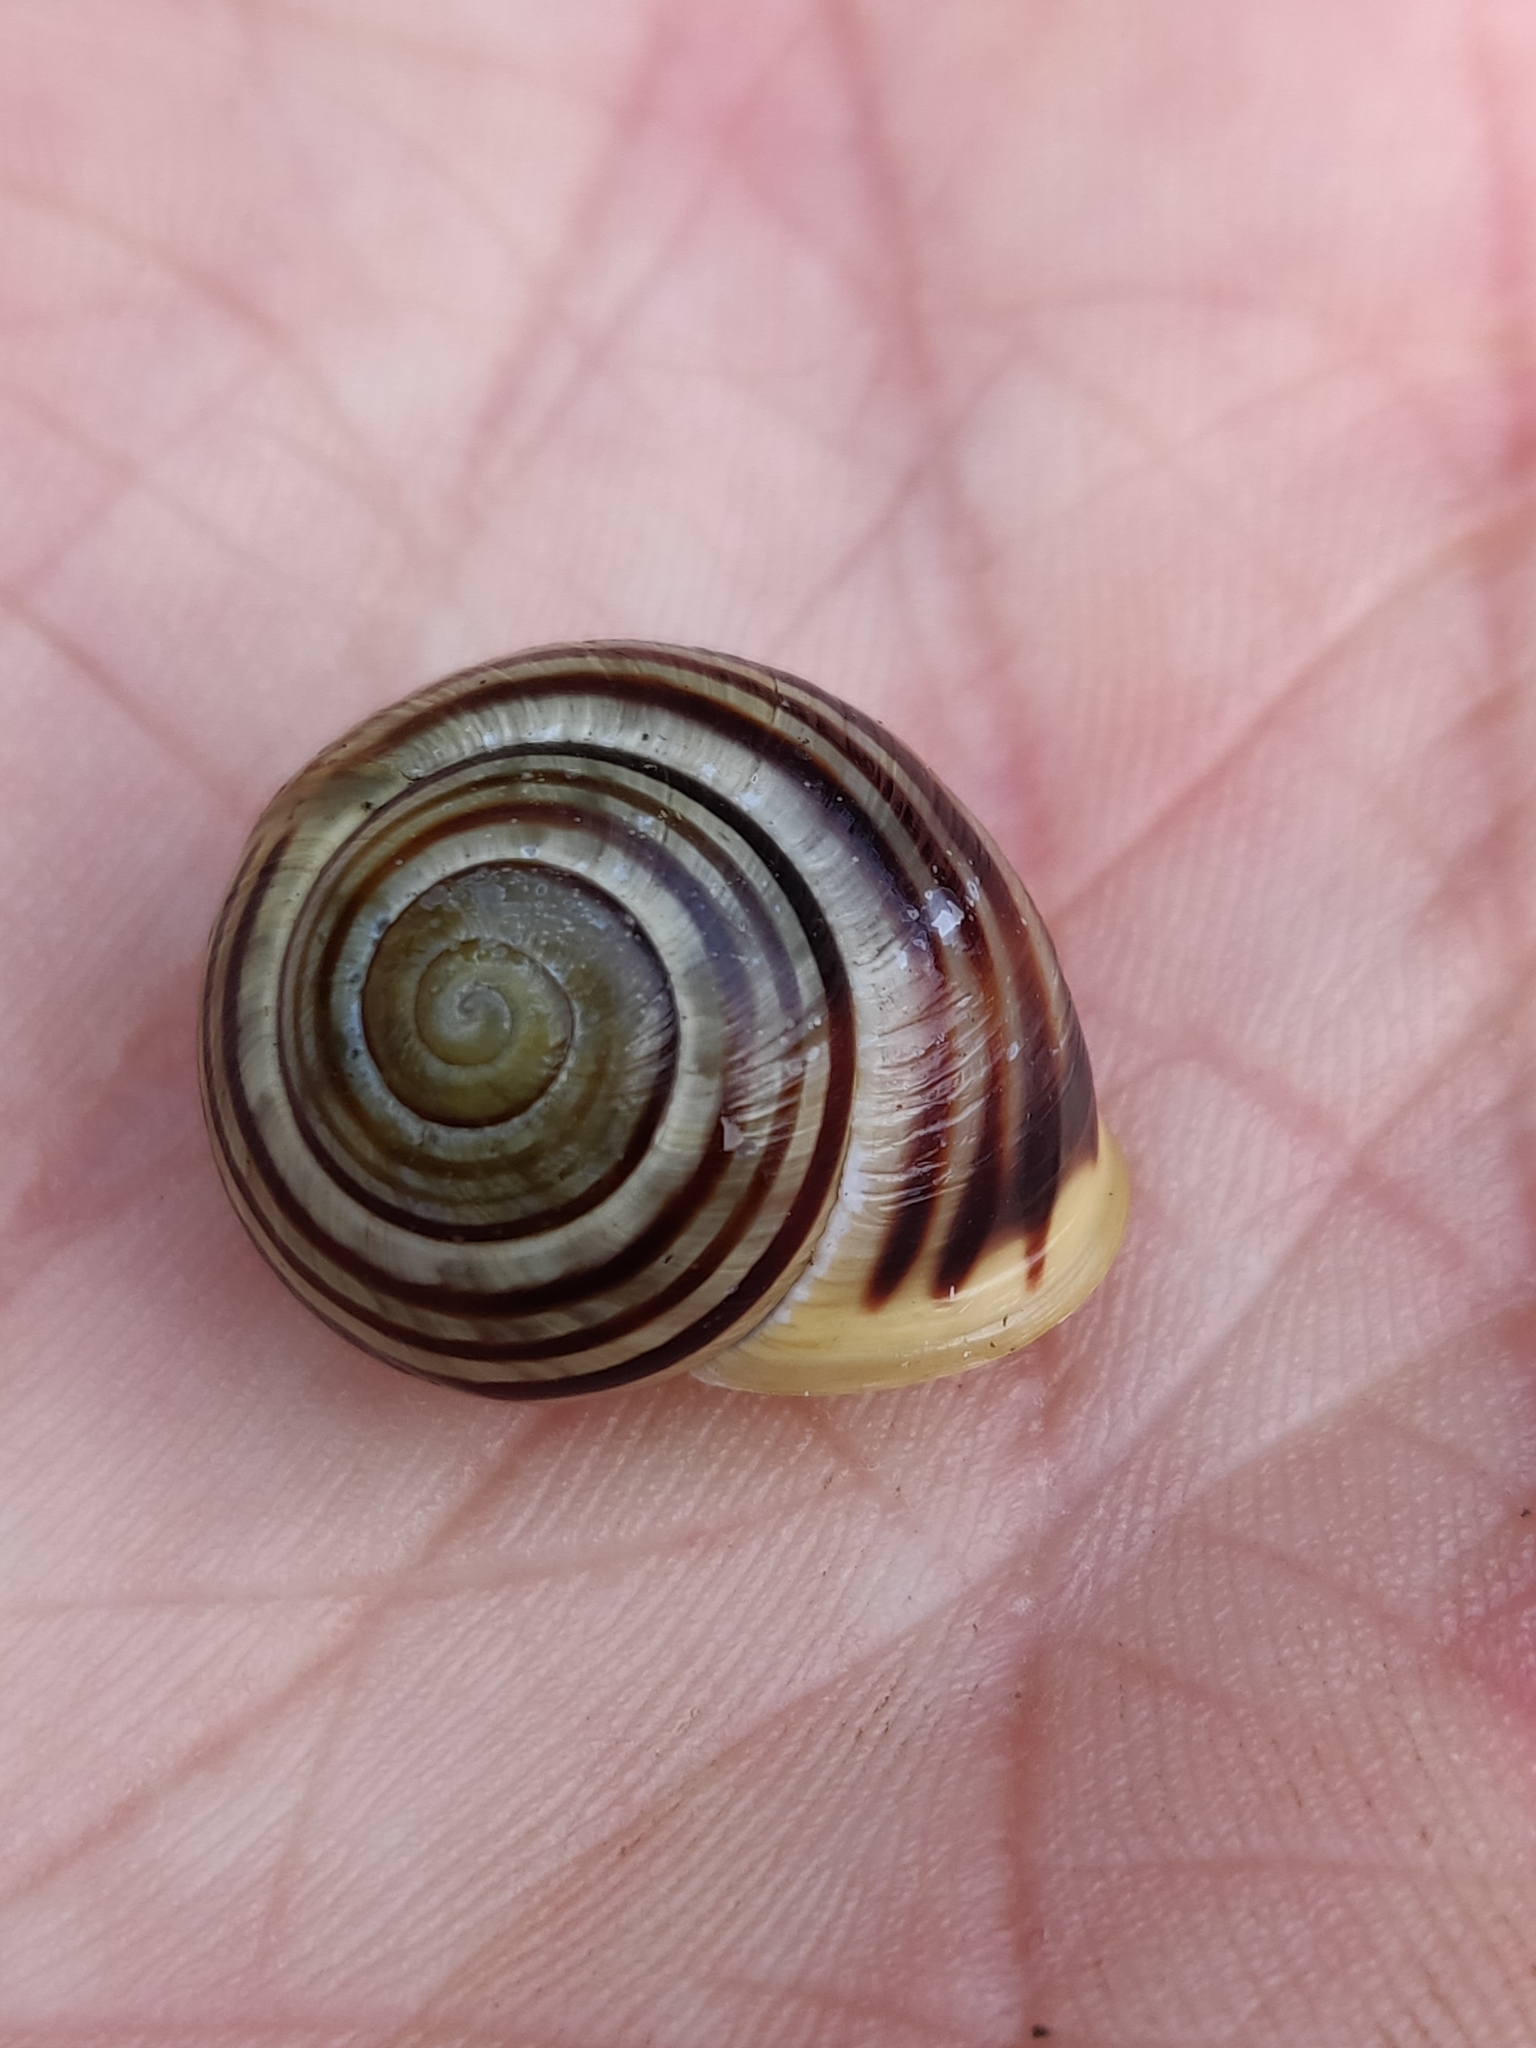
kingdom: Animalia
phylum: Mollusca
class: Gastropoda
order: Stylommatophora
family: Helicidae
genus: Cepaea
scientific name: Cepaea hortensis
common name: White-lip gardensnail
